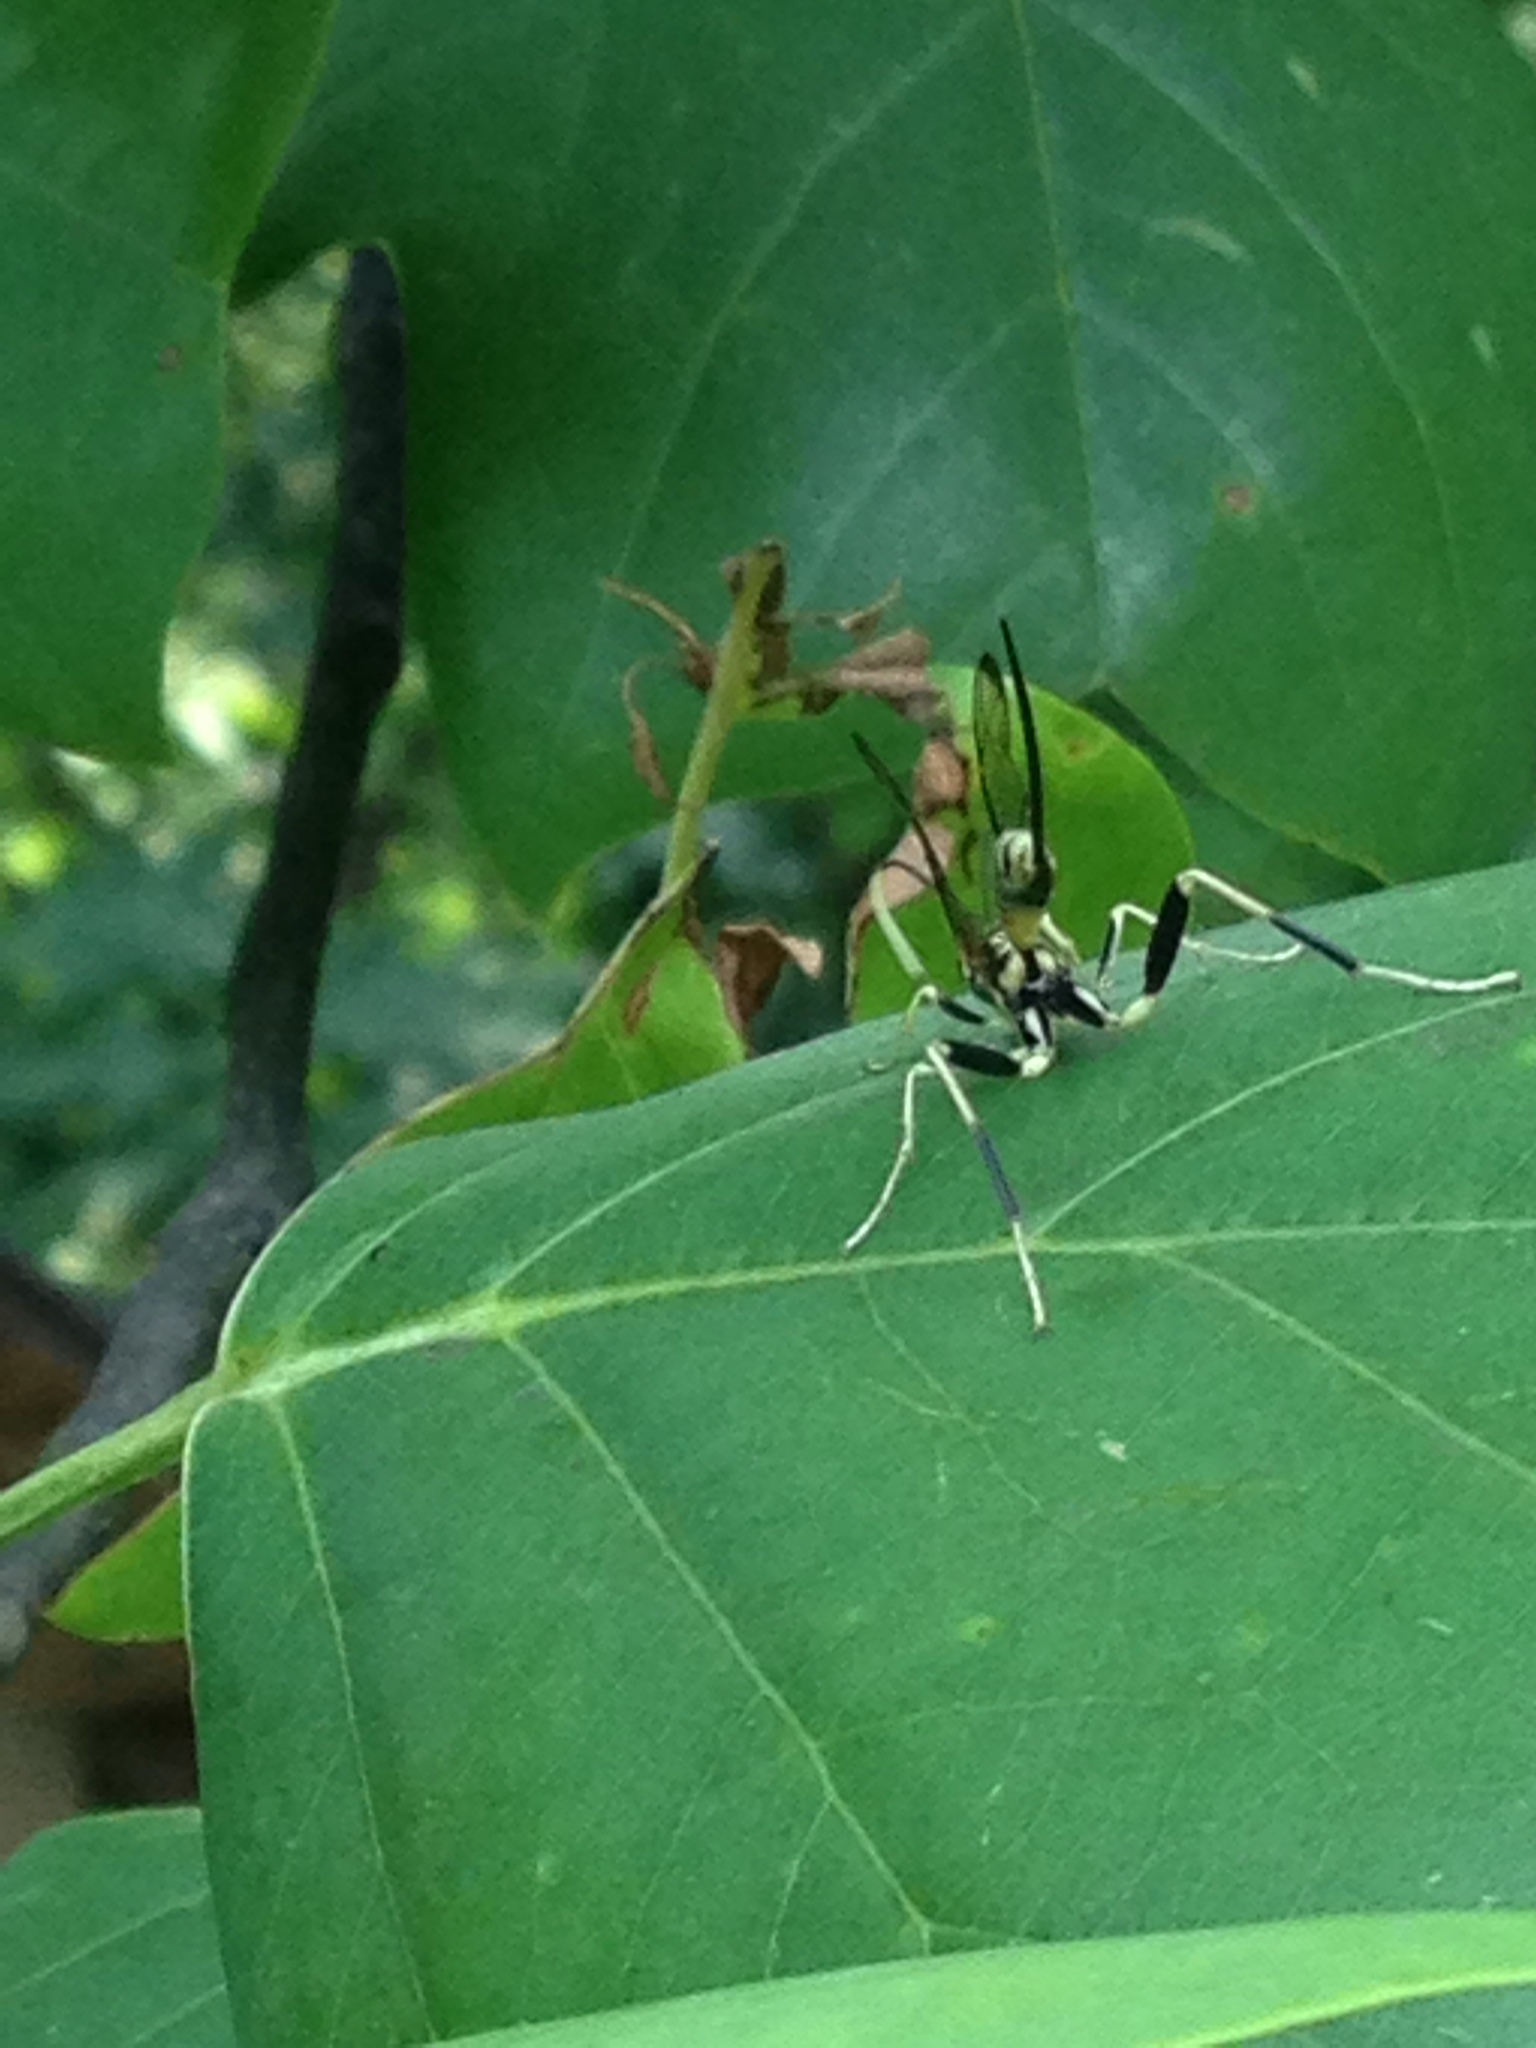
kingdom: Animalia
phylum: Arthropoda
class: Insecta
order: Hymenoptera
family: Ichneumonidae
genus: Arotes
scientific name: Arotes amoenus
